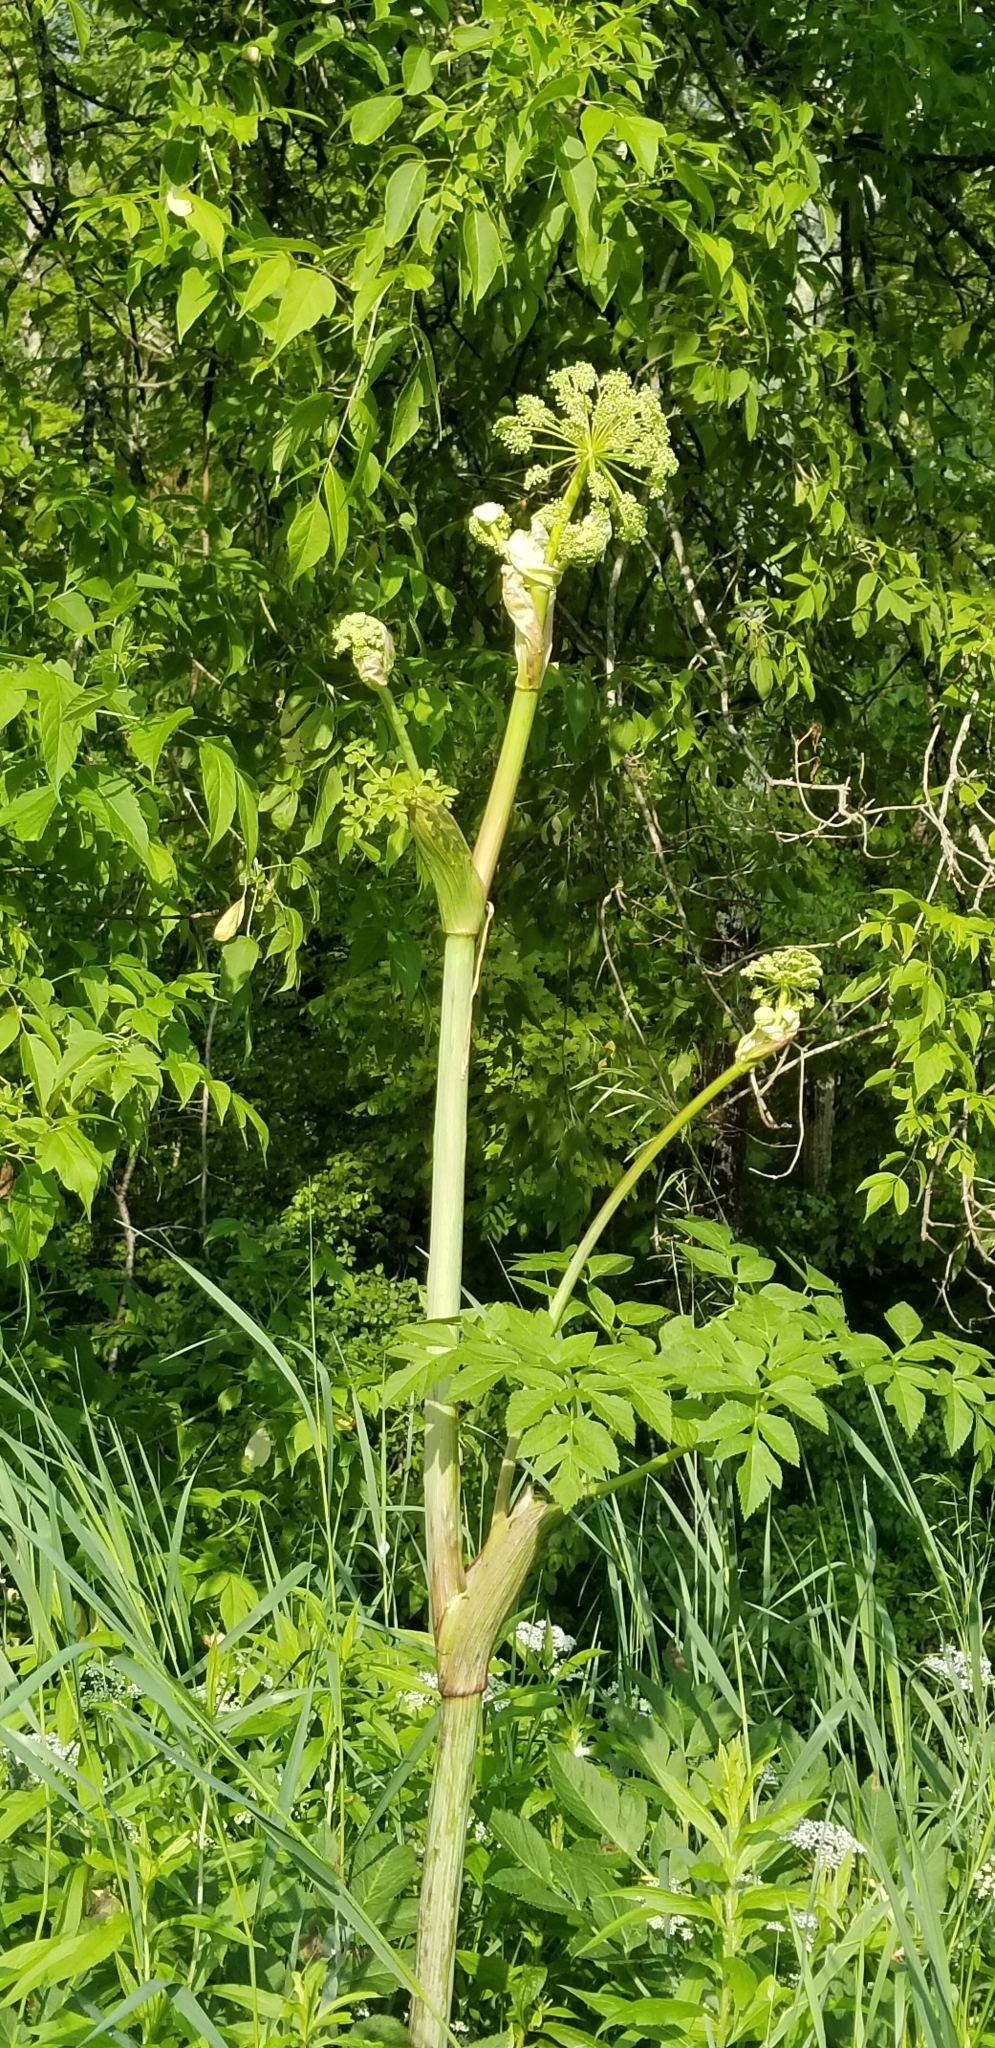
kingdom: Plantae
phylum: Tracheophyta
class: Magnoliopsida
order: Apiales
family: Apiaceae
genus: Angelica
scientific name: Angelica atropurpurea
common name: Great angelica
